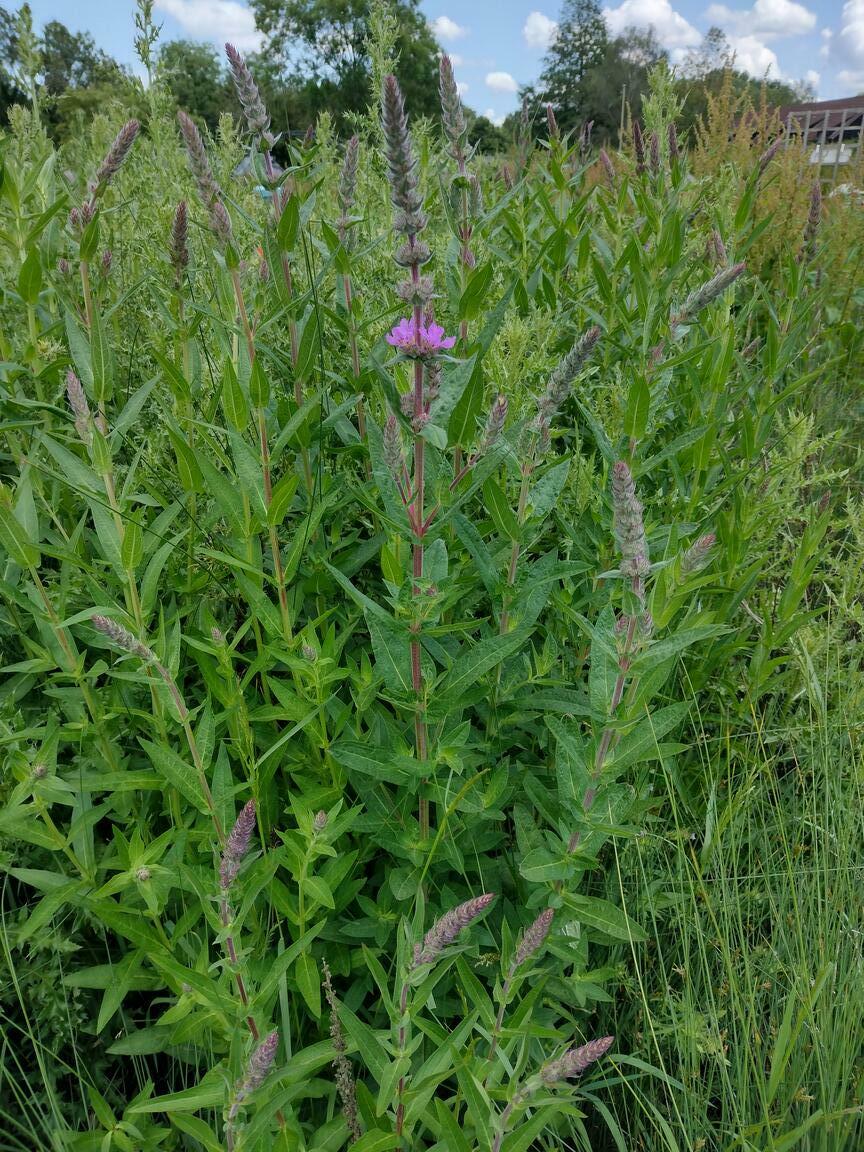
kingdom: Plantae
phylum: Tracheophyta
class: Magnoliopsida
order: Myrtales
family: Lythraceae
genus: Lythrum
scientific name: Lythrum salicaria
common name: Purple loosestrife
